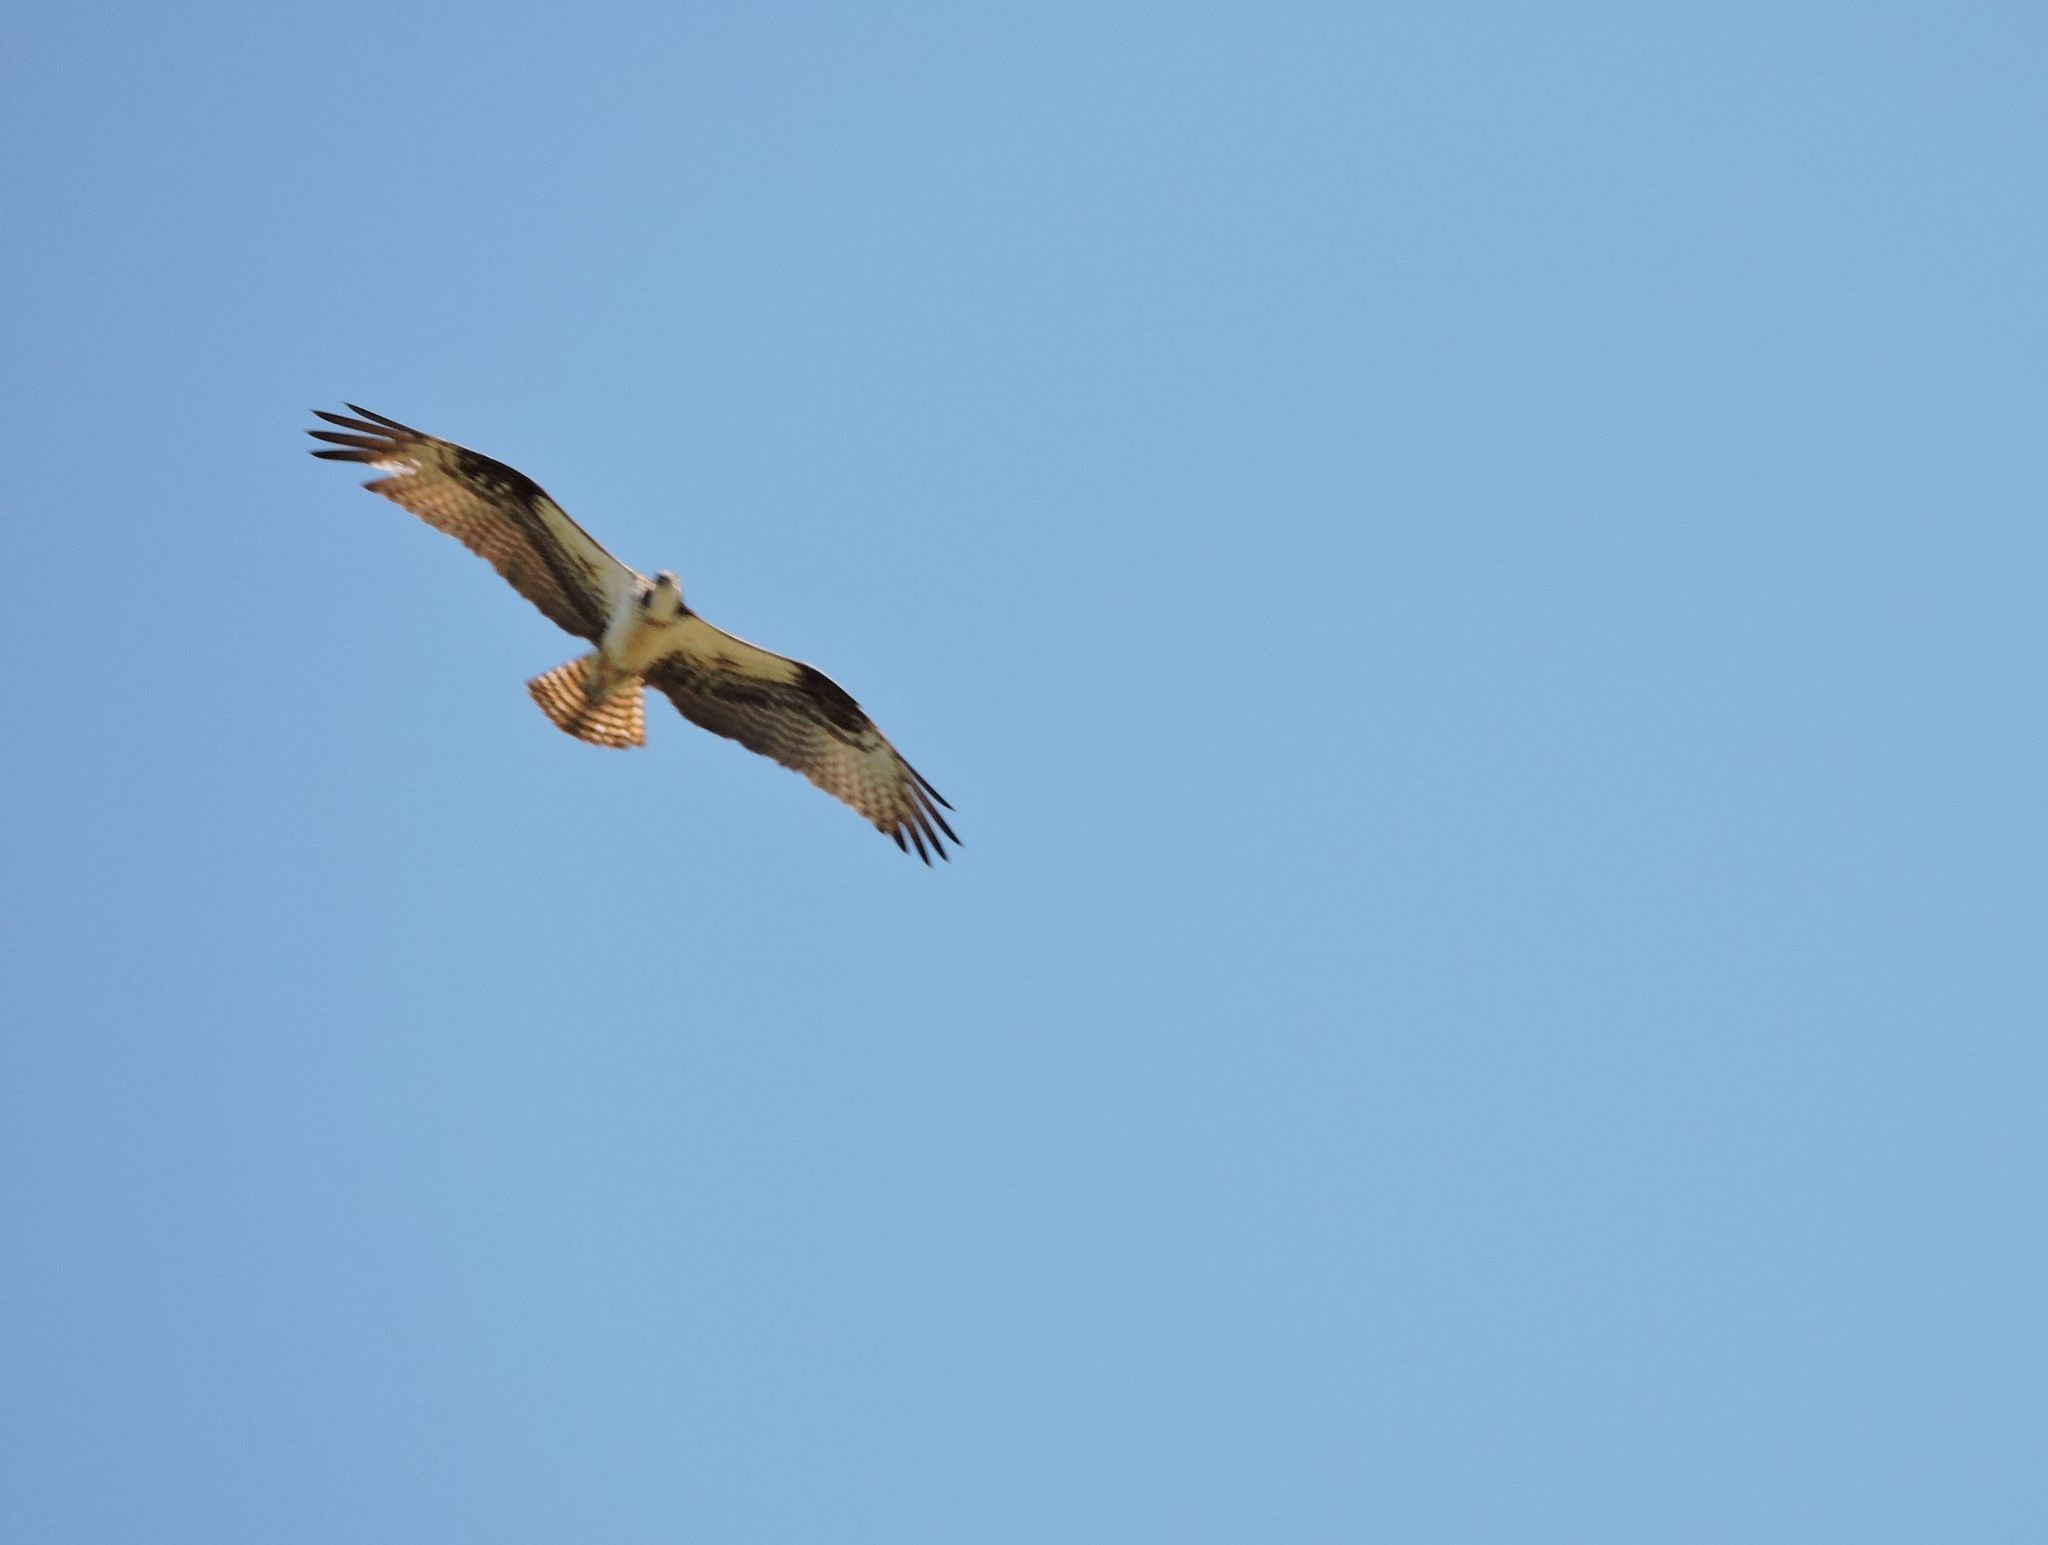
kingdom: Animalia
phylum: Chordata
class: Aves
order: Accipitriformes
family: Pandionidae
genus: Pandion
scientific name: Pandion haliaetus
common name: Osprey
